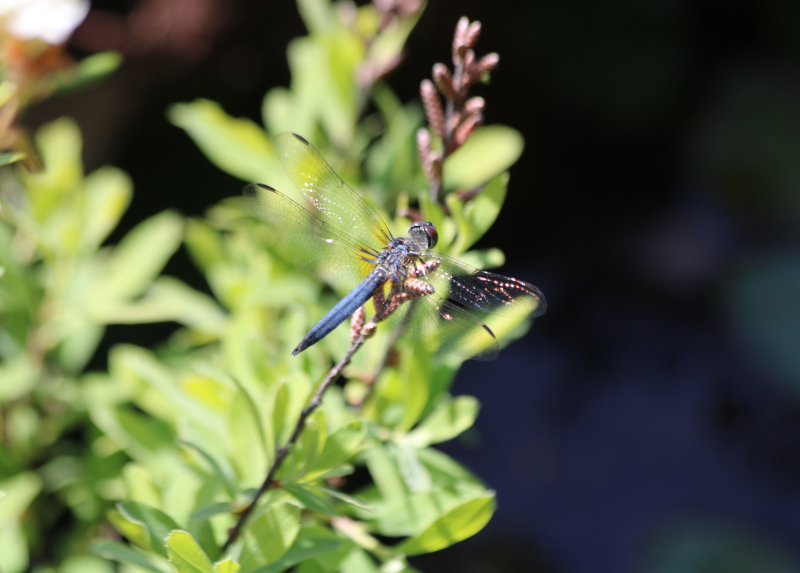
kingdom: Animalia
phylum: Arthropoda
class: Insecta
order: Odonata
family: Libellulidae
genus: Pachydiplax
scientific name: Pachydiplax longipennis
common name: Blue dasher
